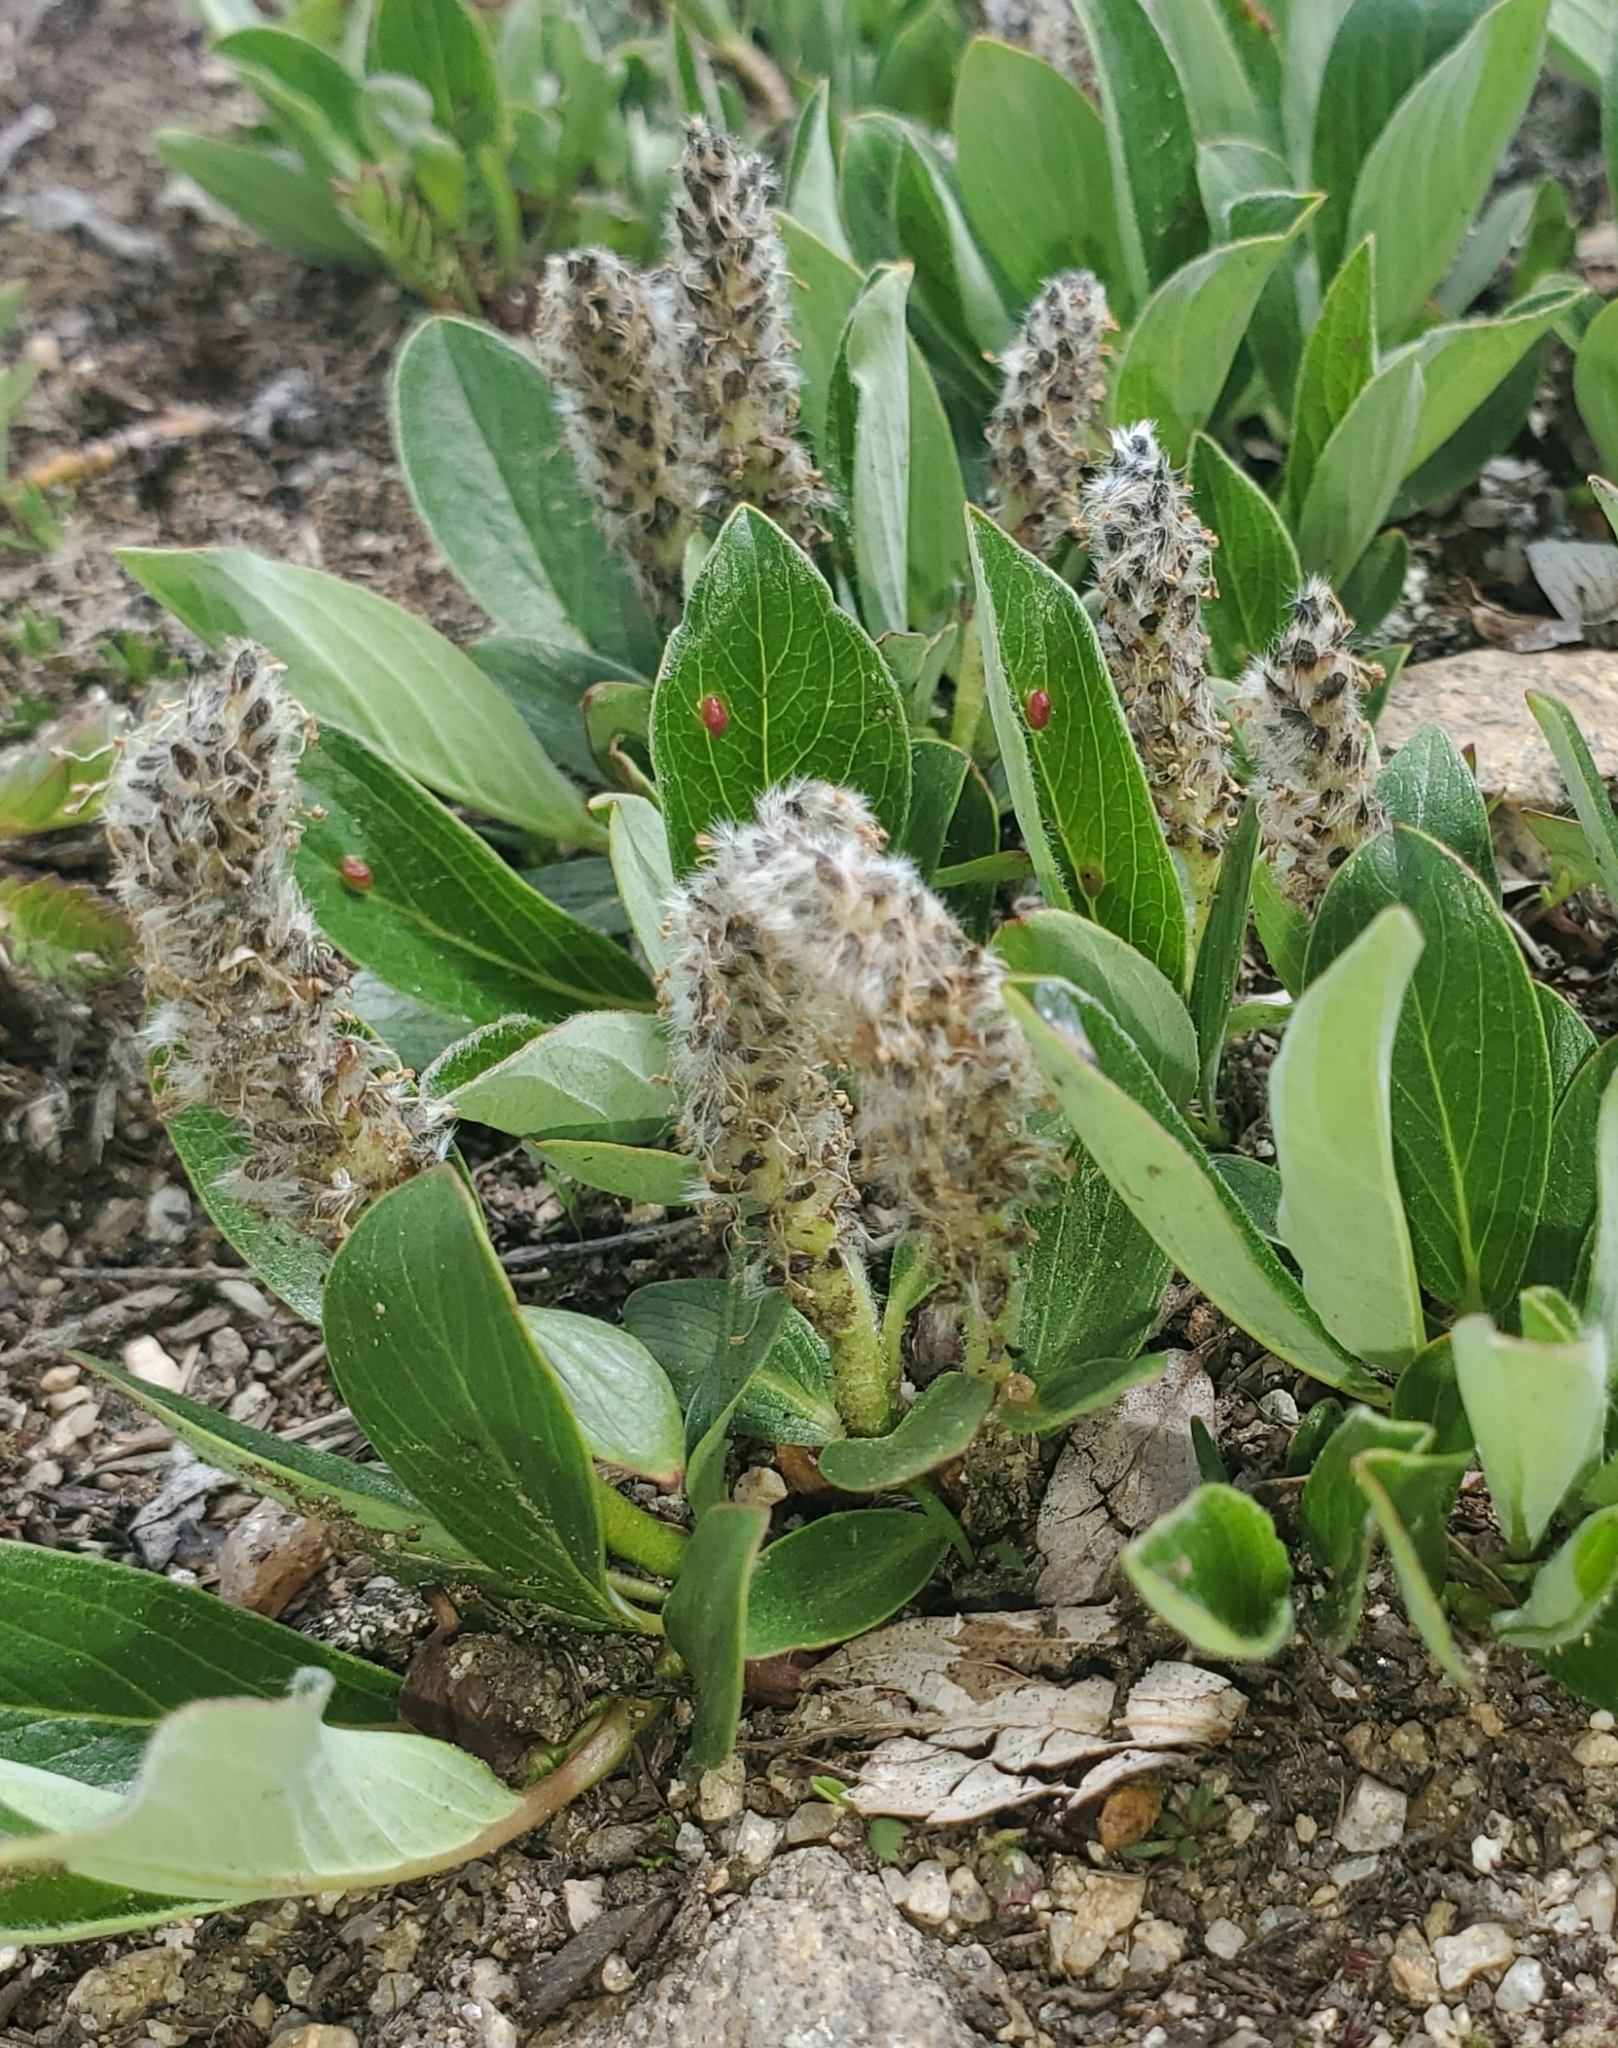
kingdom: Plantae
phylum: Tracheophyta
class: Magnoliopsida
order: Malpighiales
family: Salicaceae
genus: Salix
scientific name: Salix petrophila
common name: Rocky mountain willow
